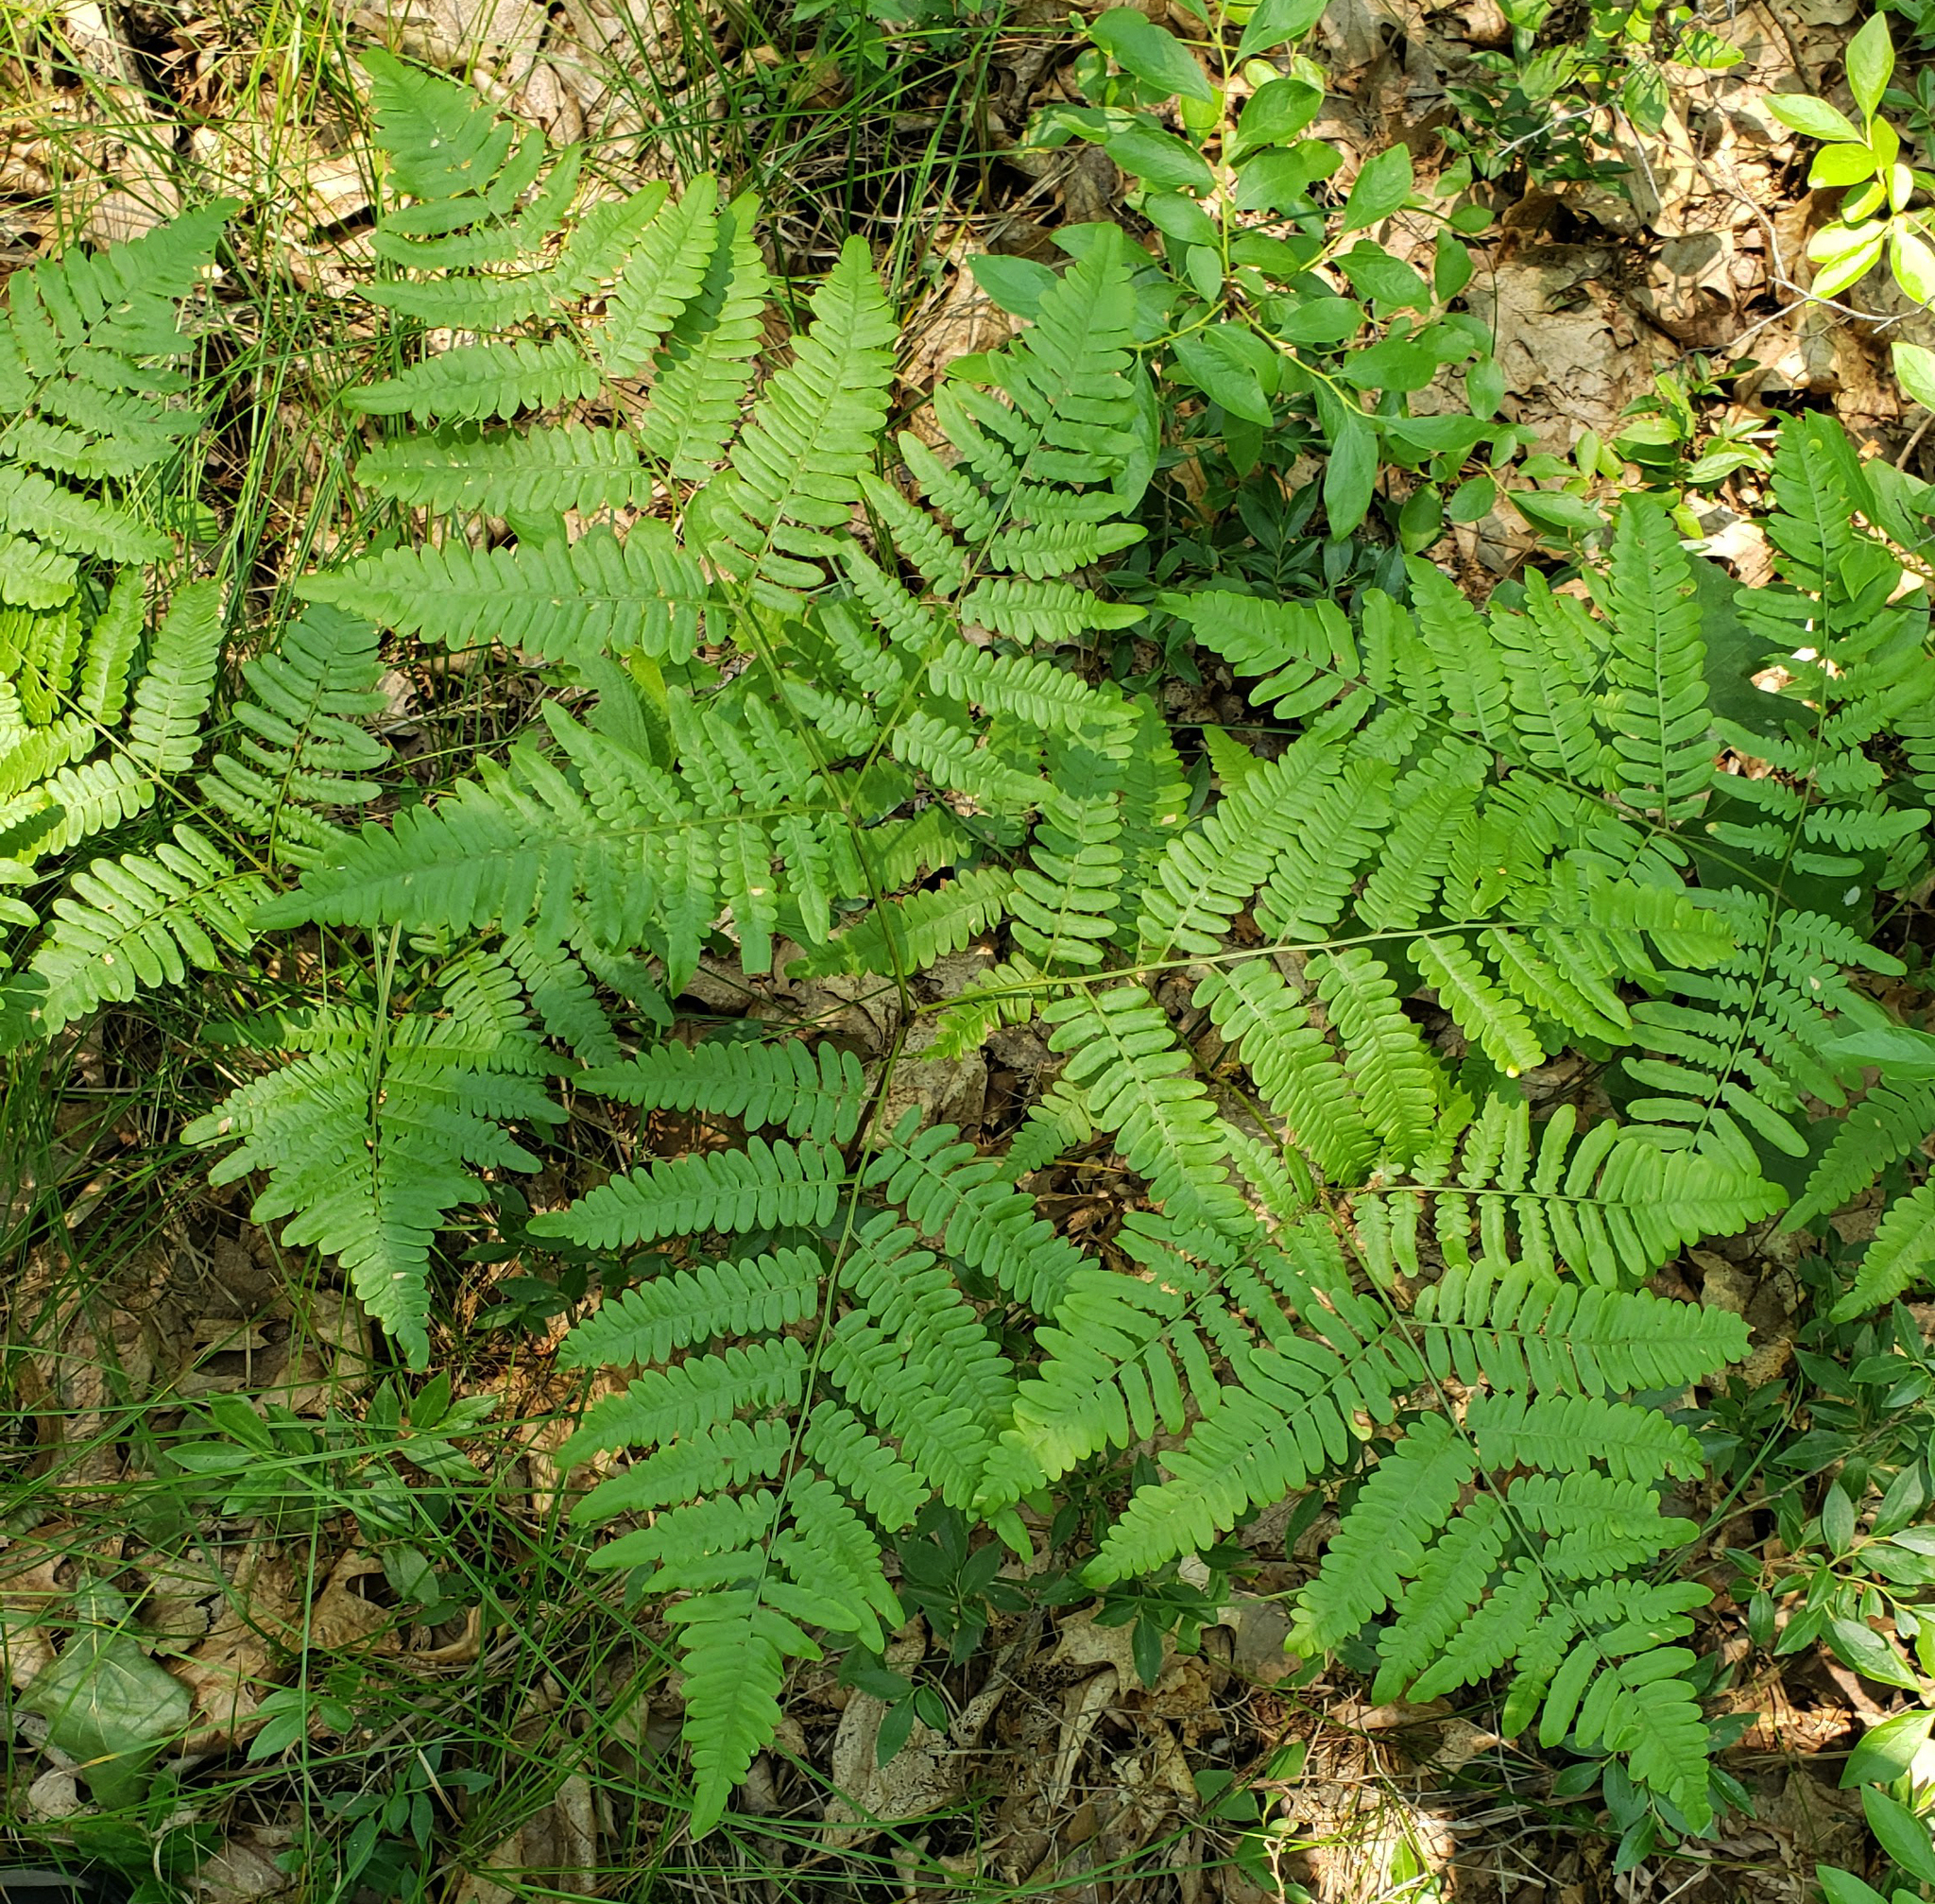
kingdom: Plantae
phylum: Tracheophyta
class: Polypodiopsida
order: Polypodiales
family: Dennstaedtiaceae
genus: Pteridium
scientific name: Pteridium aquilinum
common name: Bracken
